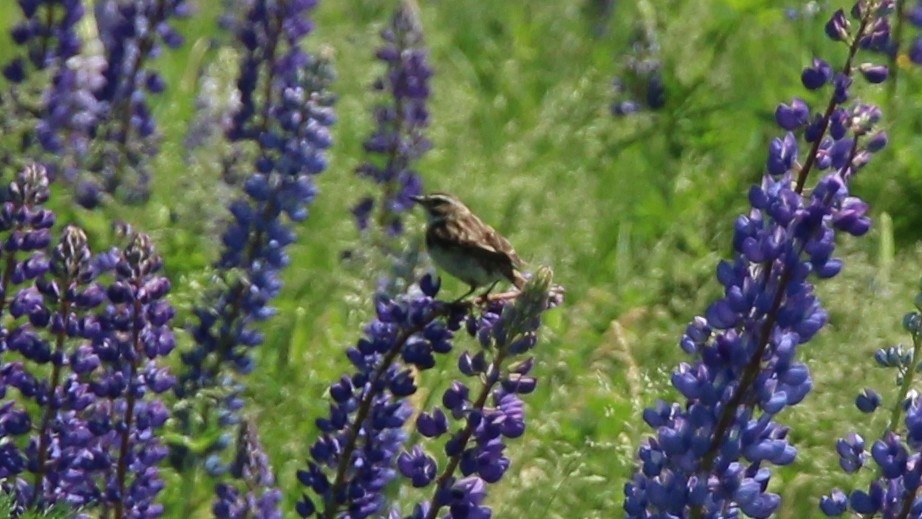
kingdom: Animalia
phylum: Chordata
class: Aves
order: Passeriformes
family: Muscicapidae
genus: Saxicola
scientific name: Saxicola rubetra
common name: Whinchat
